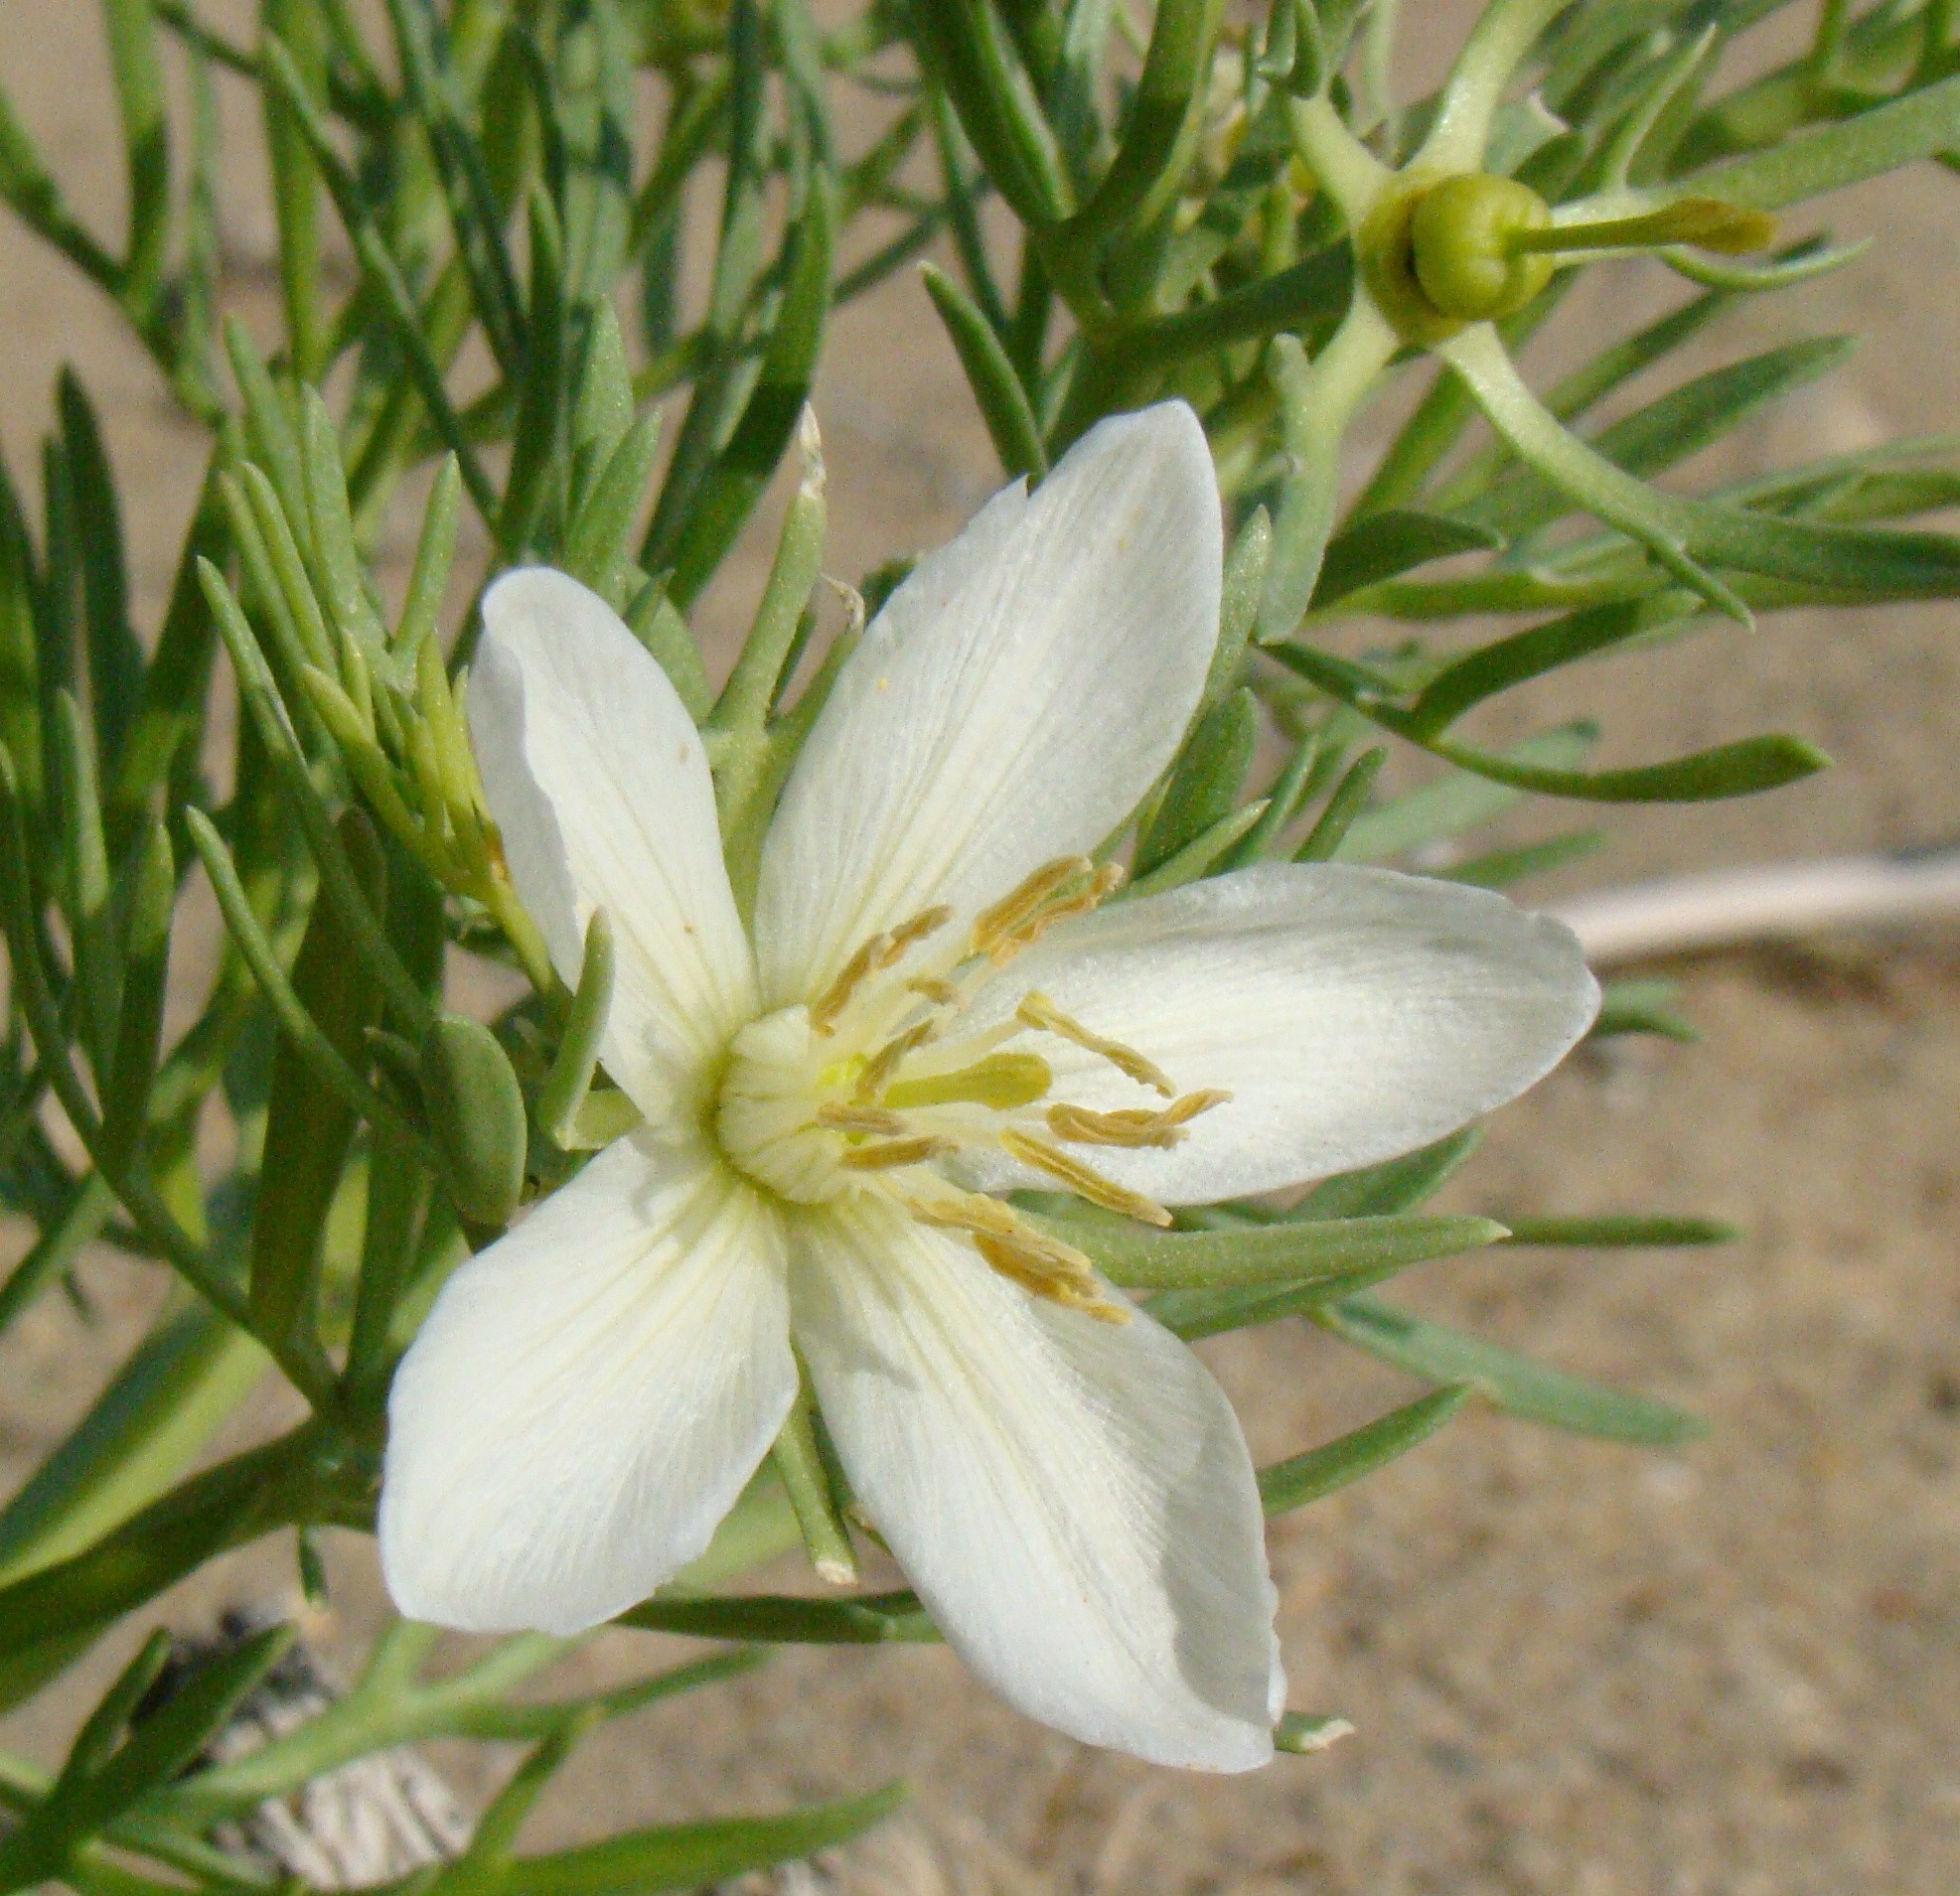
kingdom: Plantae
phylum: Tracheophyta
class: Magnoliopsida
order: Sapindales
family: Tetradiclidaceae
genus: Peganum
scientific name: Peganum harmala
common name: Harmal peganum
